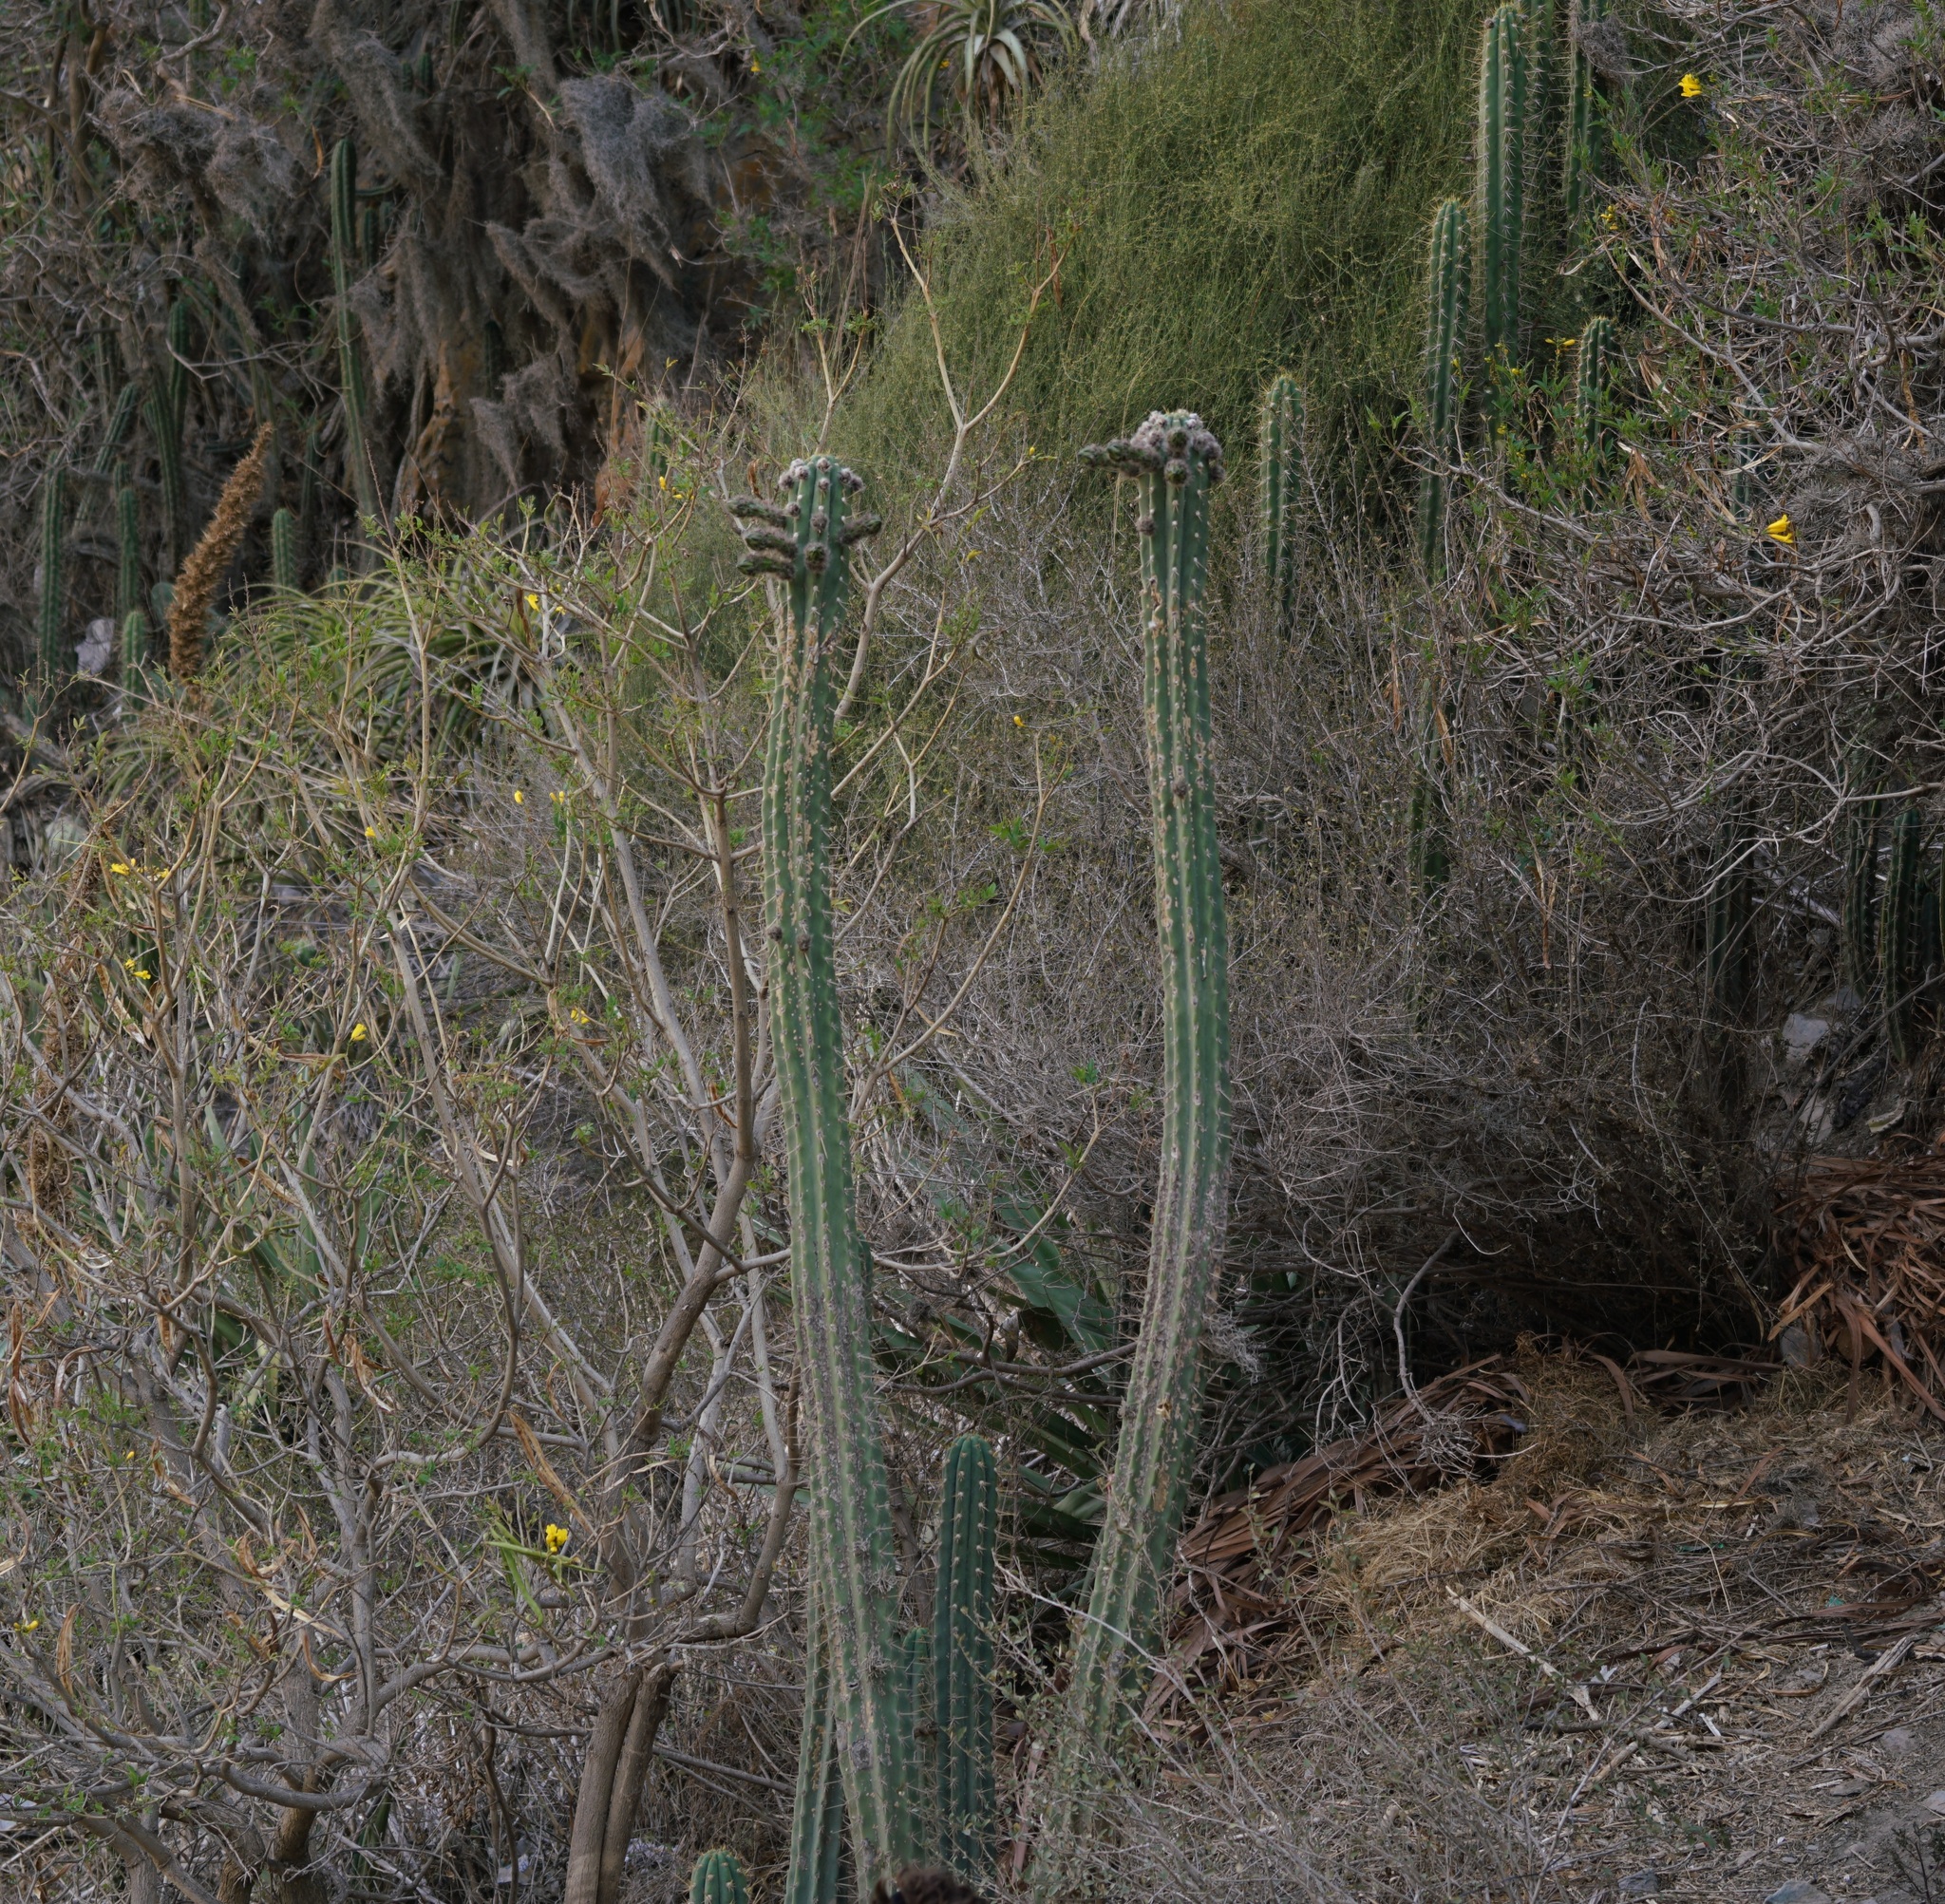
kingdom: Plantae
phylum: Tracheophyta
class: Magnoliopsida
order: Caryophyllales
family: Cactaceae
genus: Trichocereus
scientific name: Trichocereus cuzcoensis
